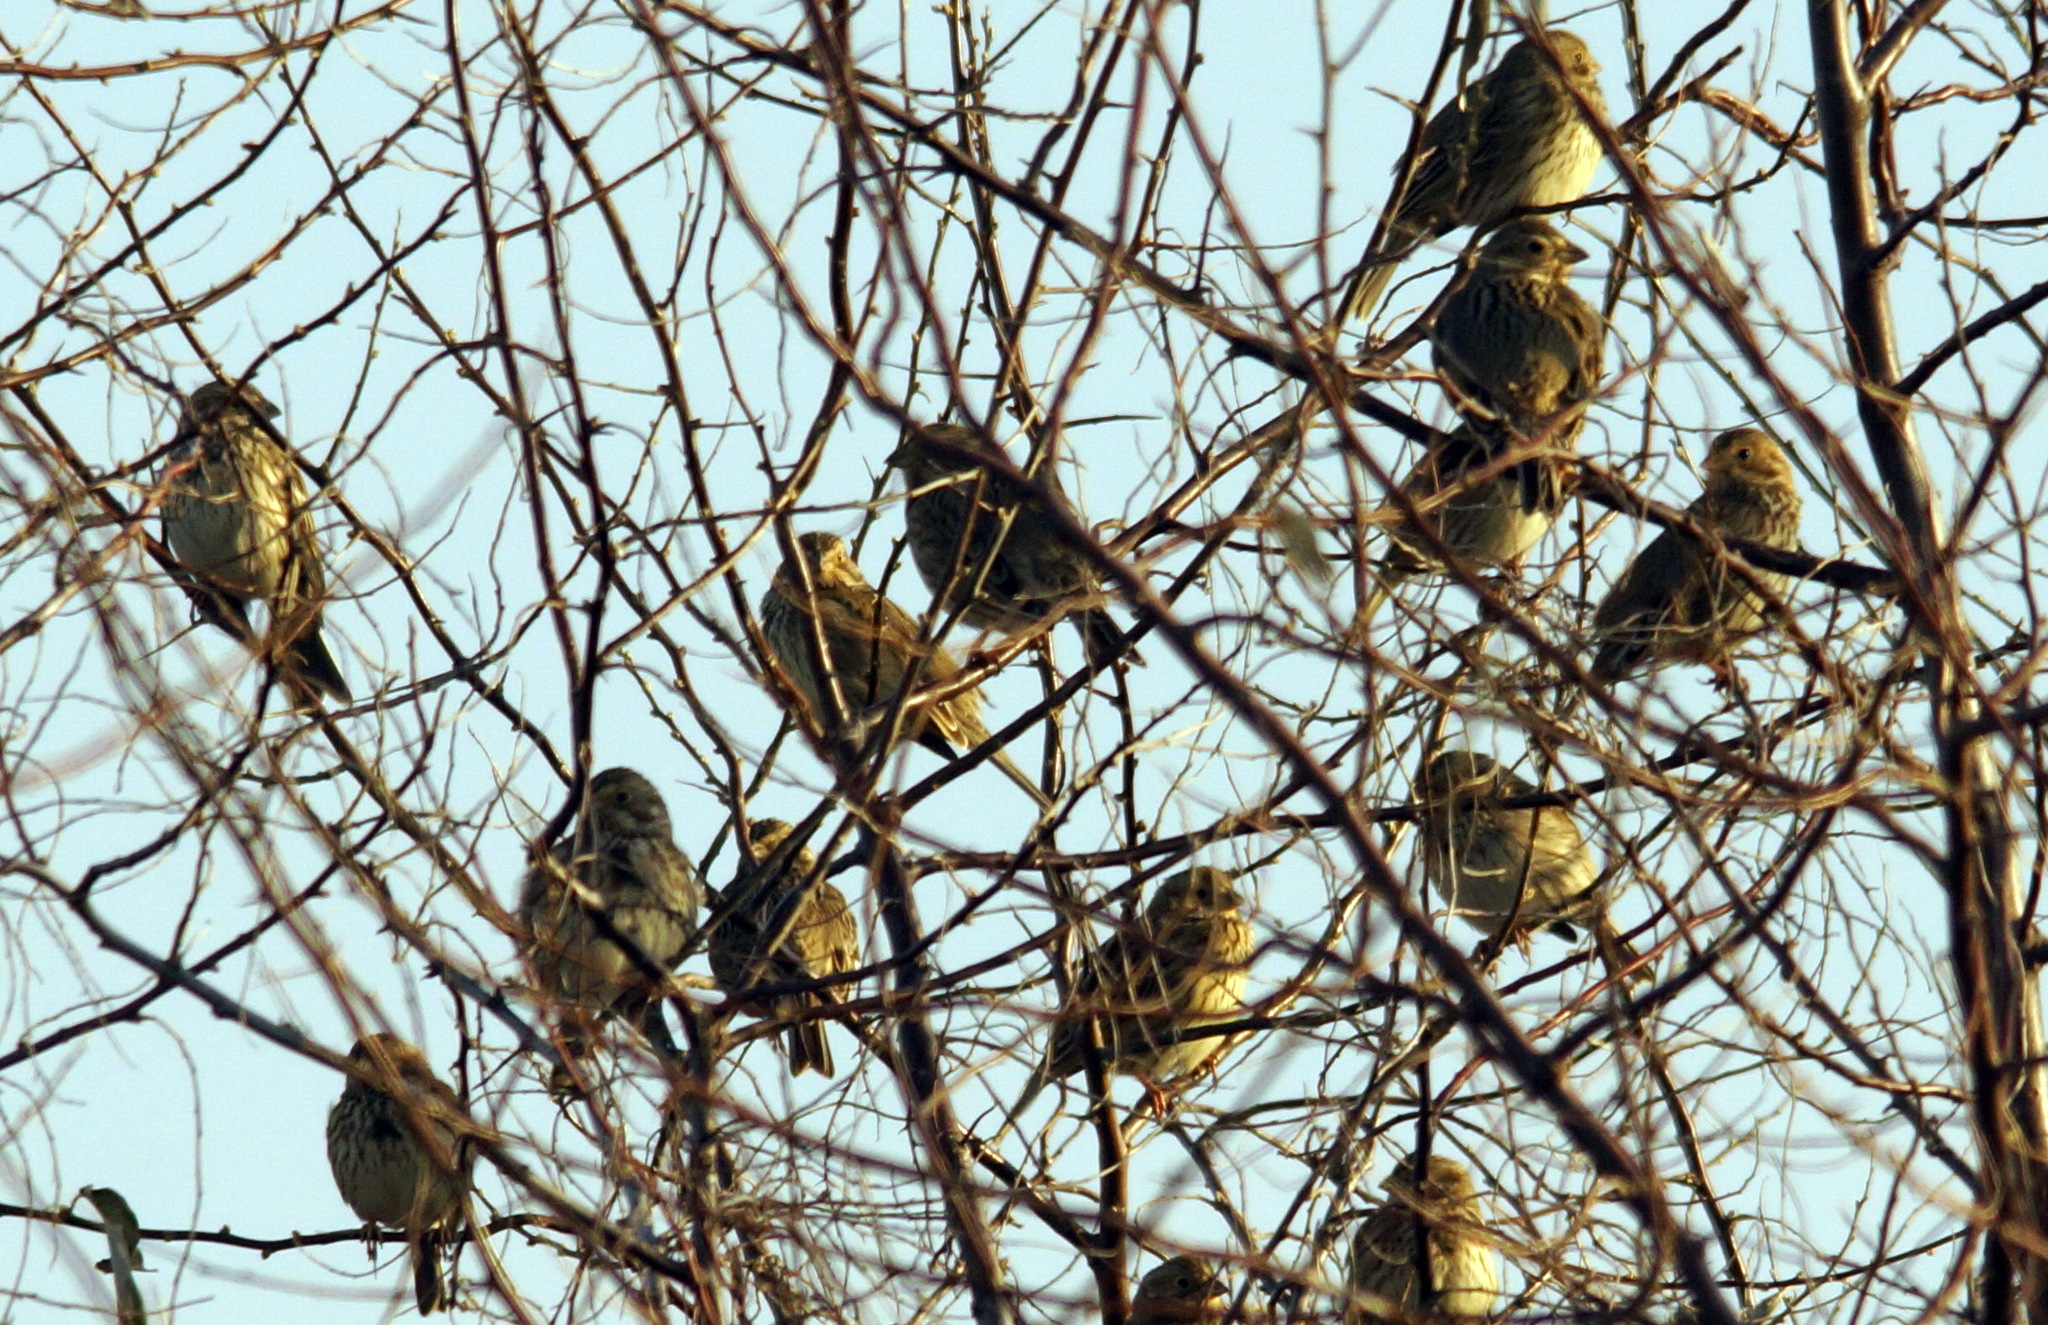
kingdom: Animalia
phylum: Chordata
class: Aves
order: Passeriformes
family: Emberizidae
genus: Emberiza
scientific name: Emberiza calandra
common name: Corn bunting
